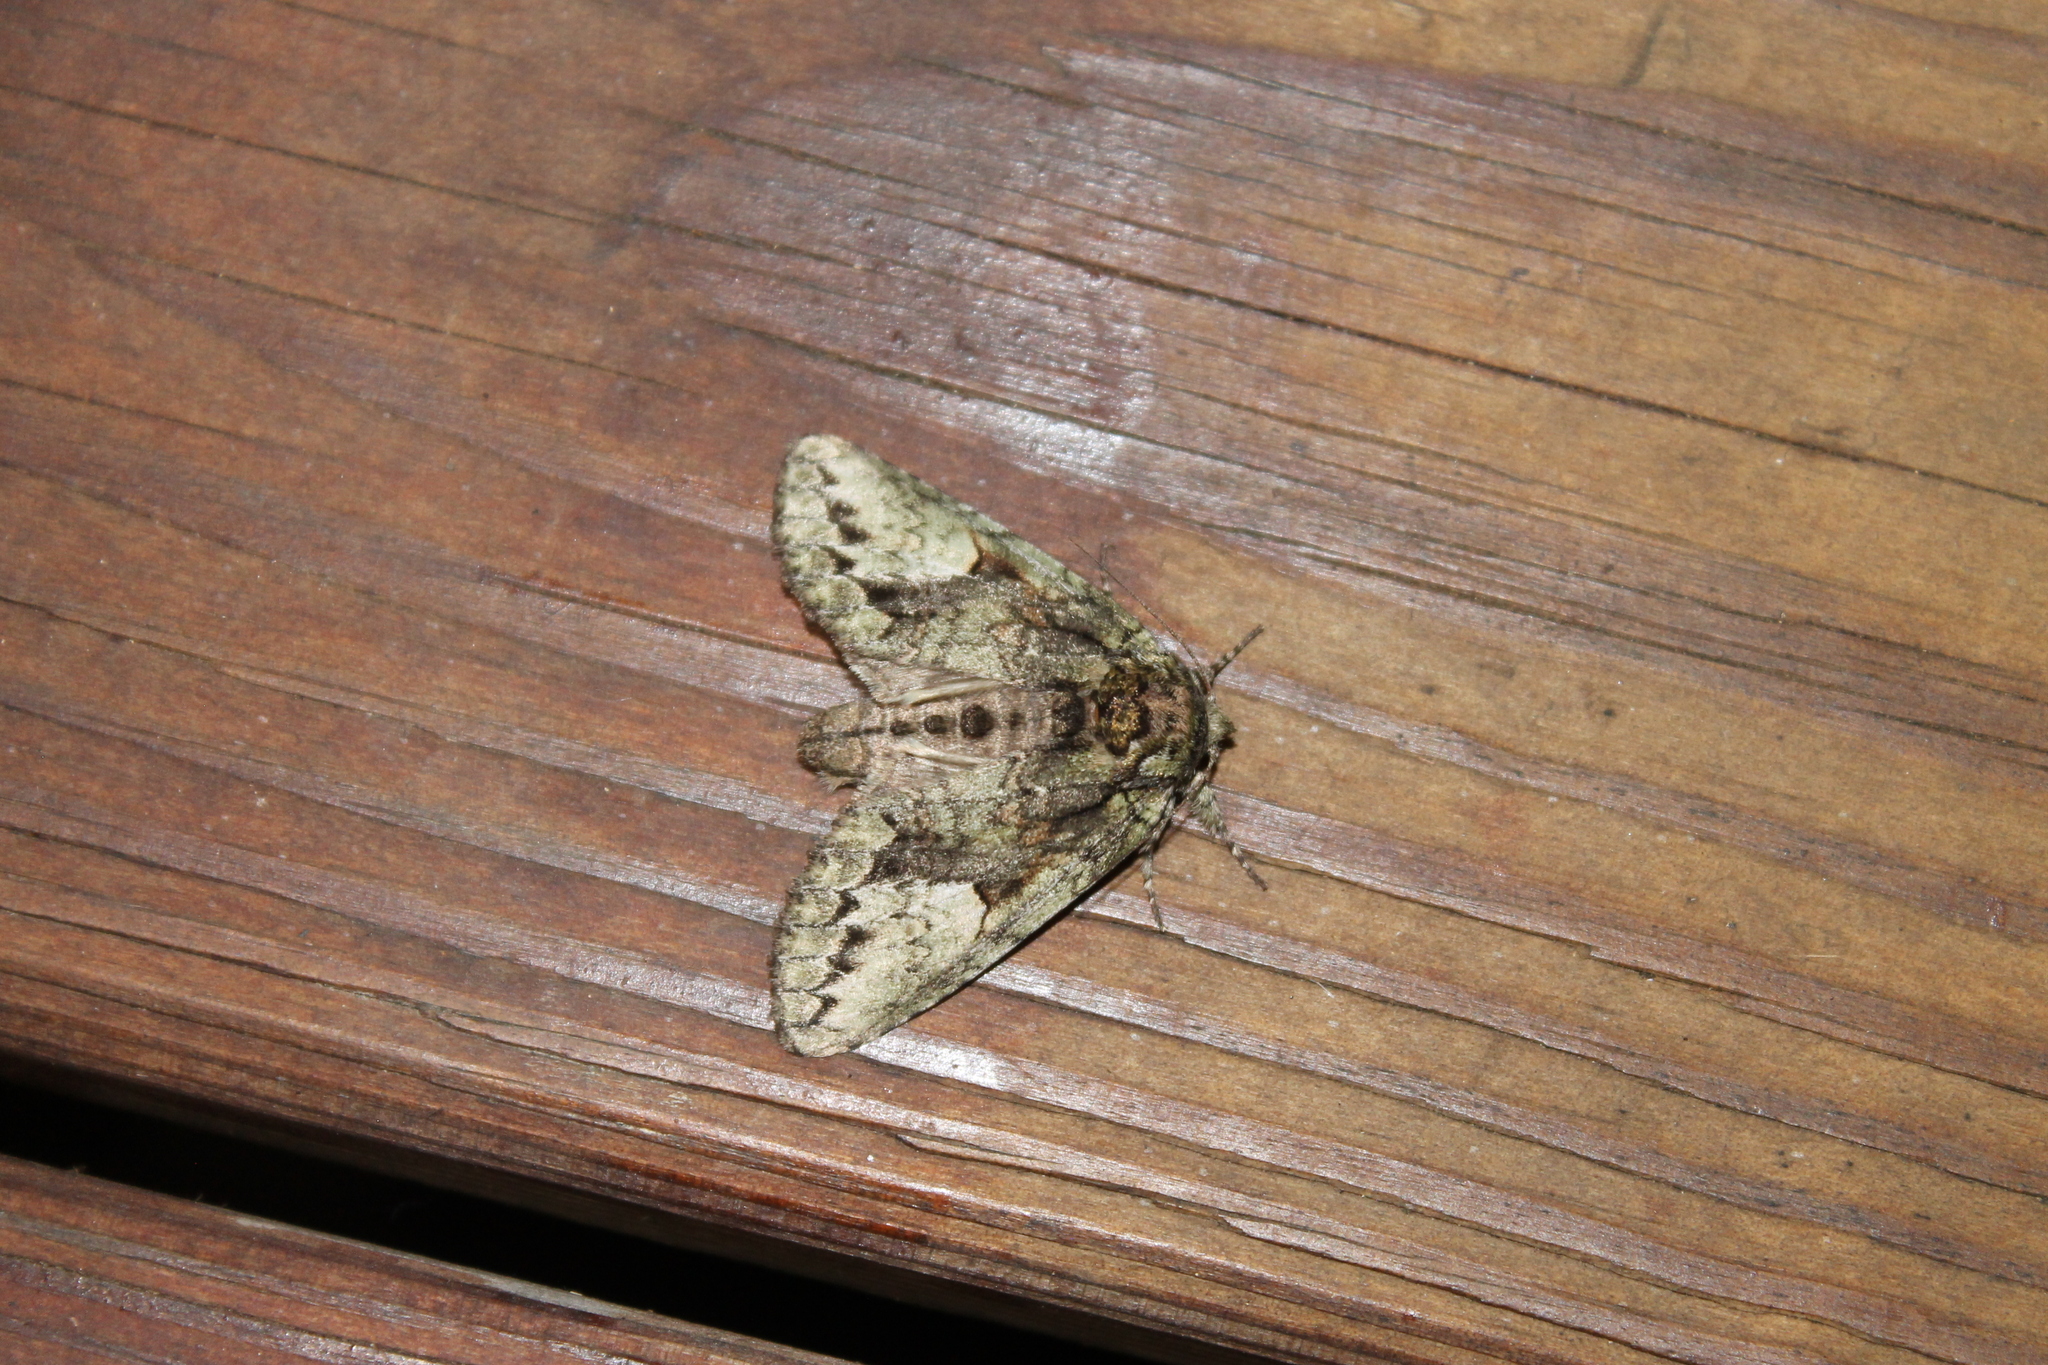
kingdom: Animalia
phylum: Arthropoda
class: Insecta
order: Lepidoptera
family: Notodontidae
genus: Heterocampa
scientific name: Heterocampa
